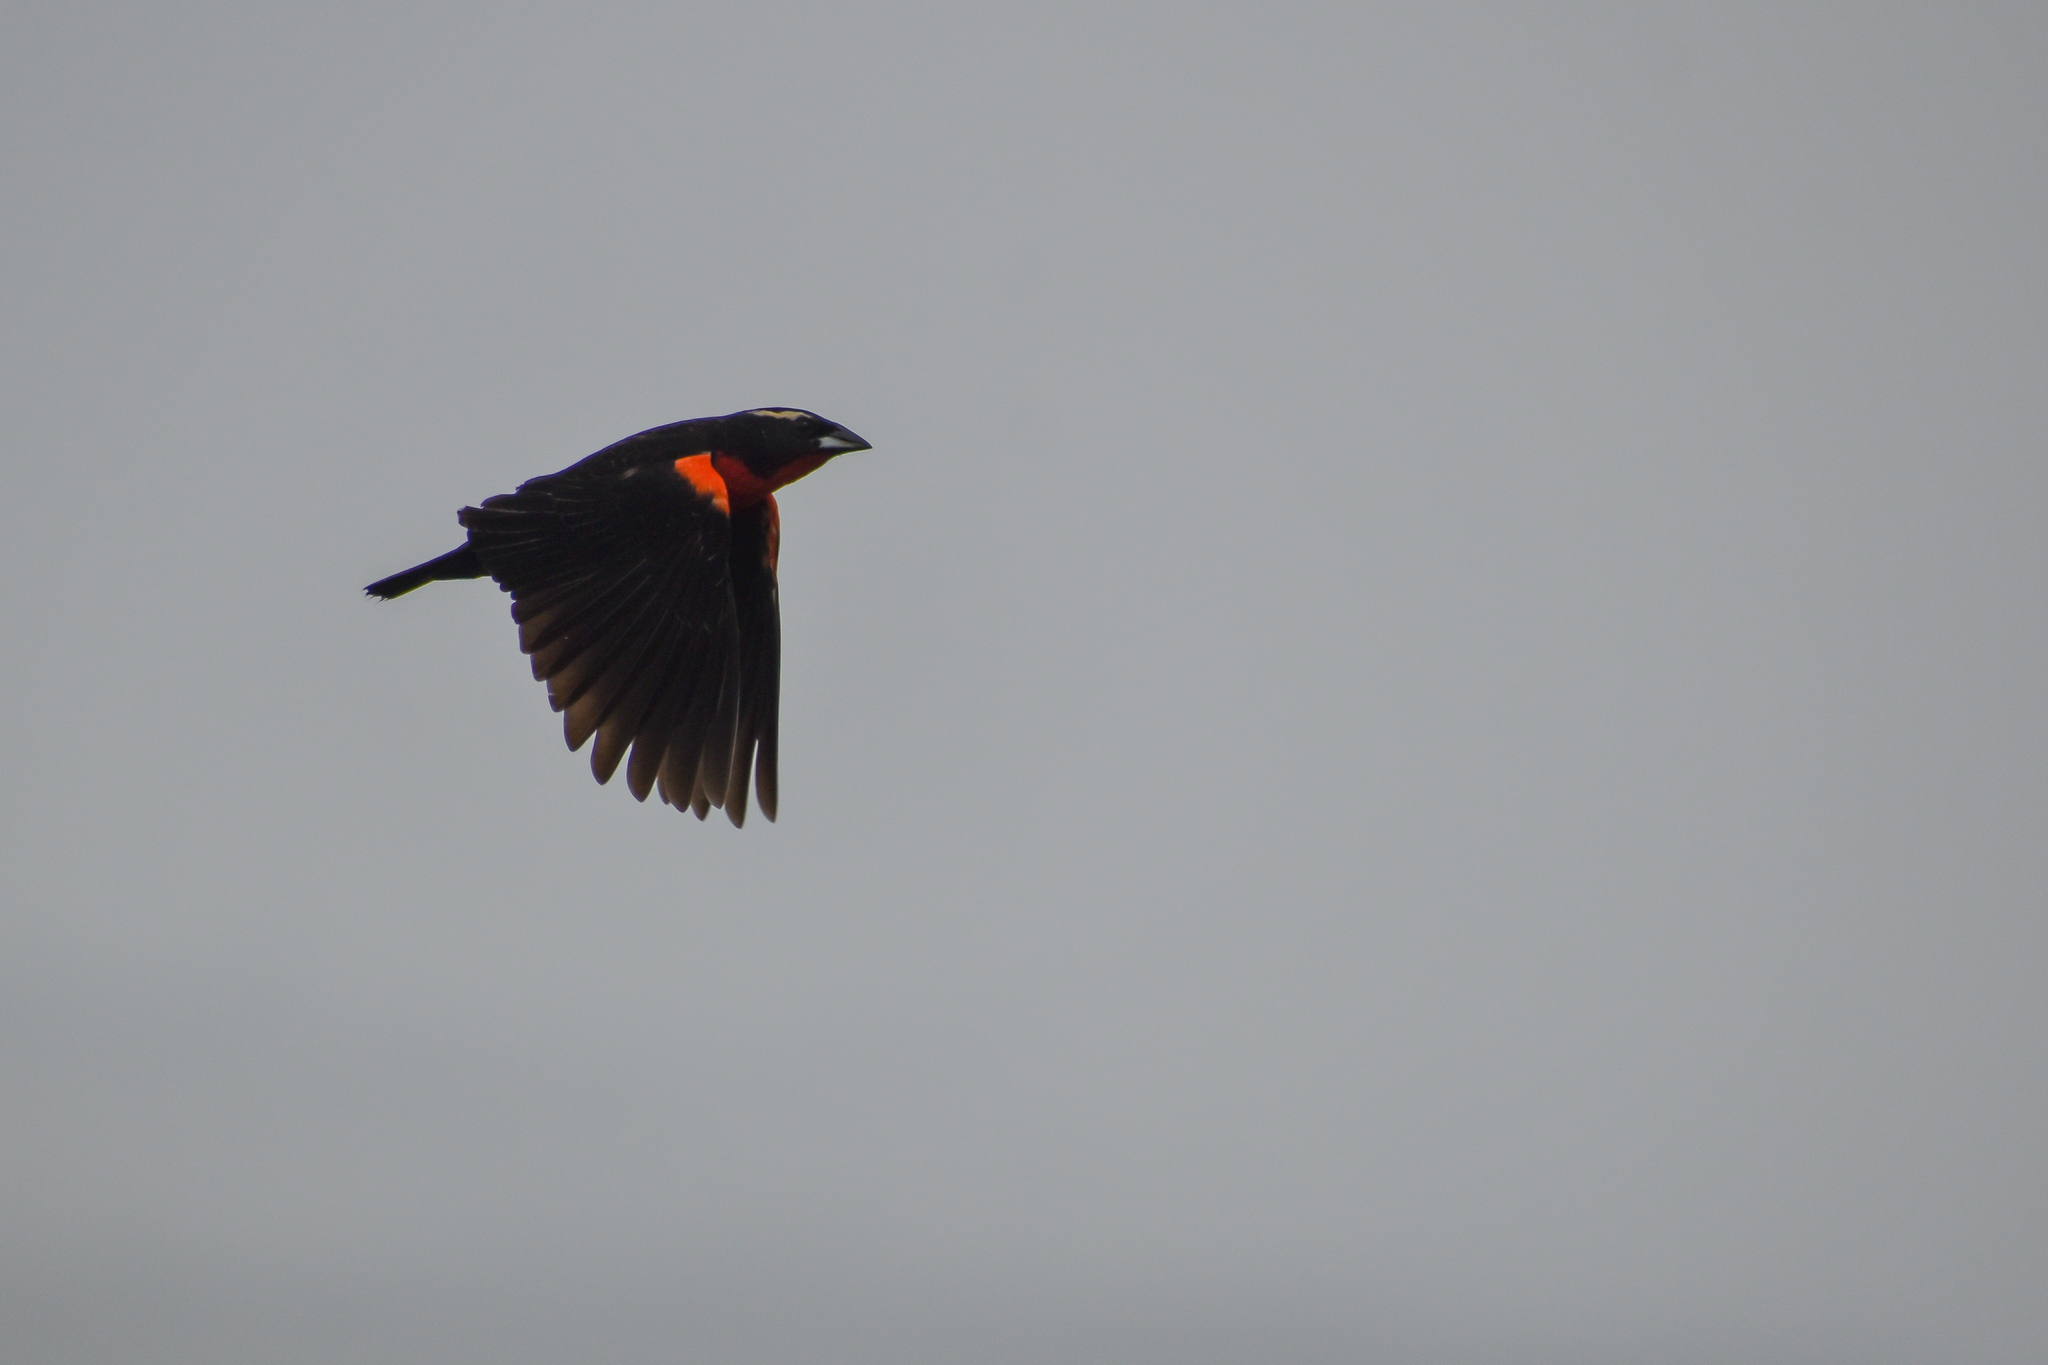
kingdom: Animalia
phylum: Chordata
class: Aves
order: Passeriformes
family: Icteridae
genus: Sturnella
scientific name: Sturnella superciliaris
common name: White-browed blackbird
